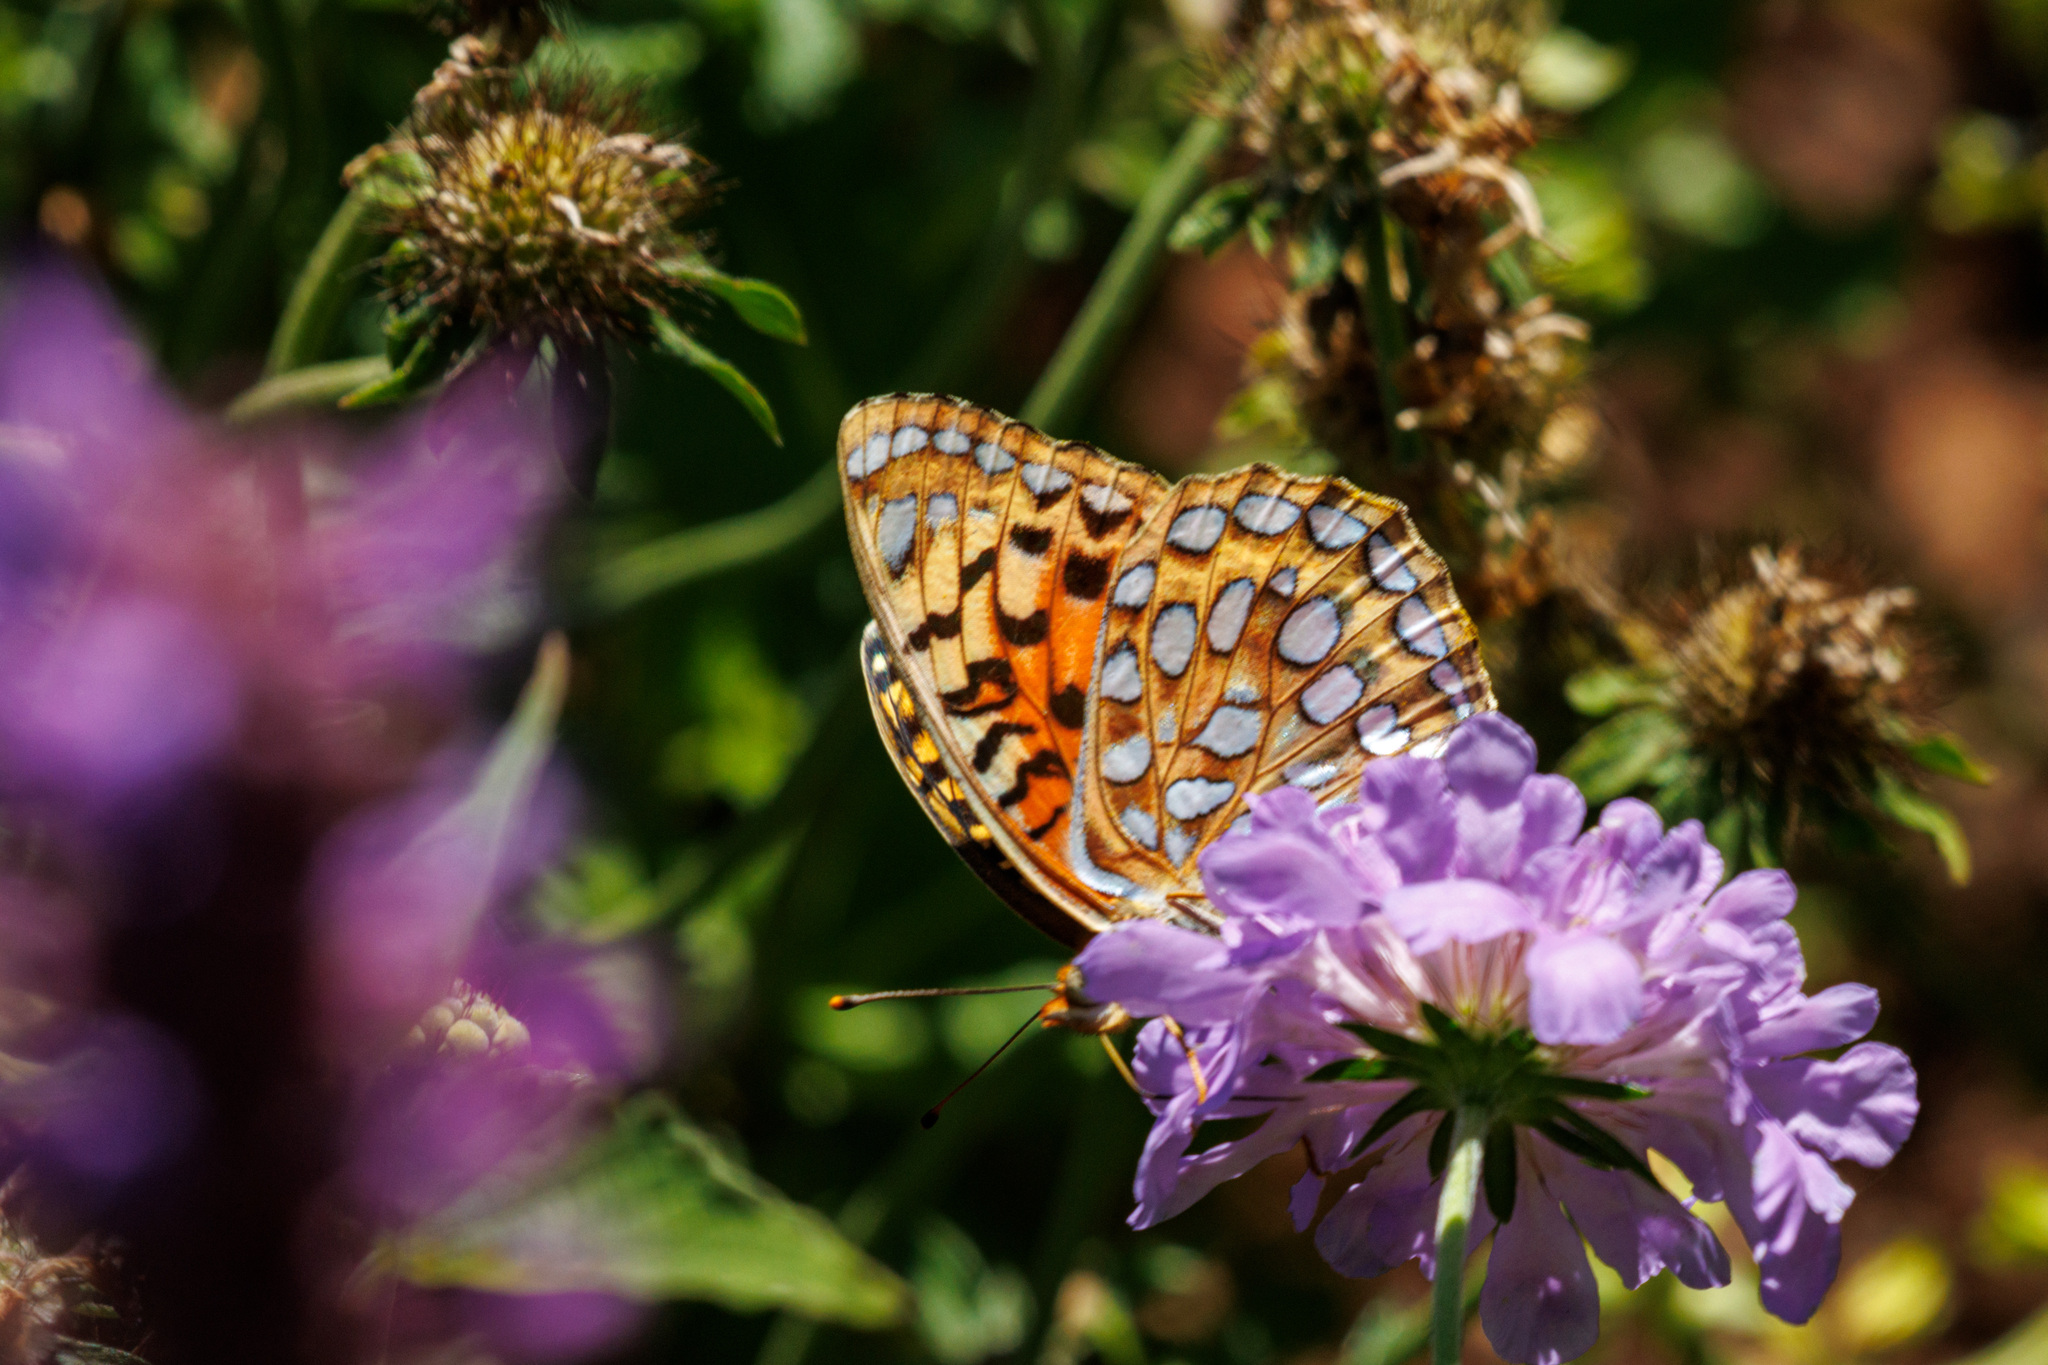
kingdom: Animalia
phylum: Arthropoda
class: Insecta
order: Lepidoptera
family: Nymphalidae
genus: Argynnis
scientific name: Argynnis coronis
